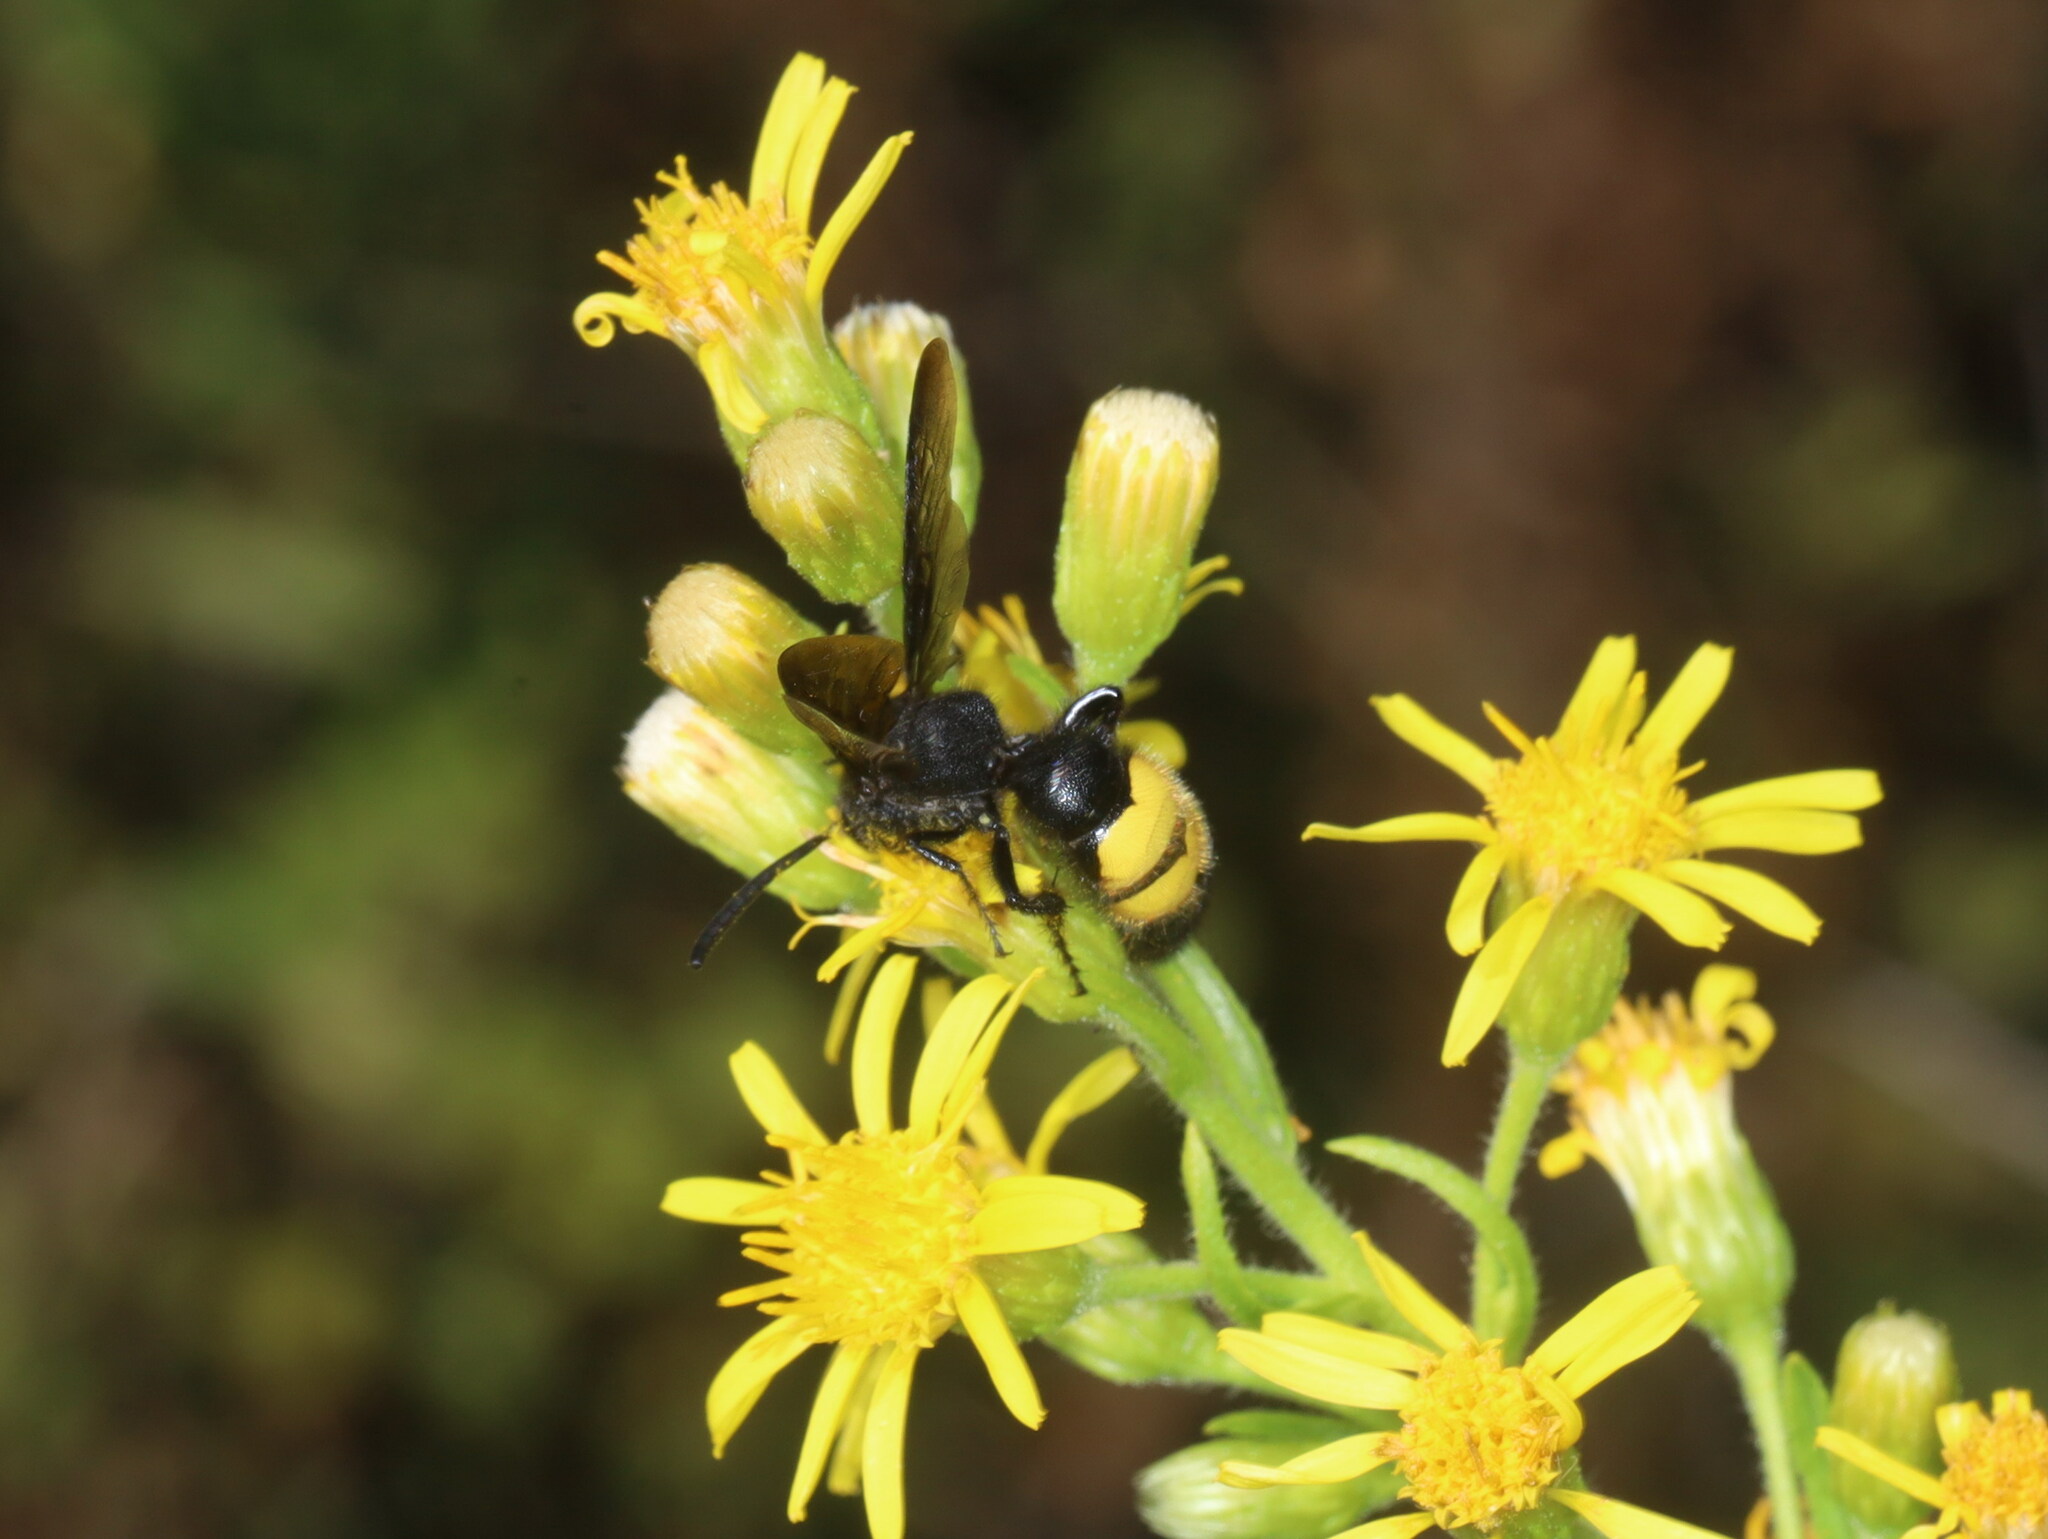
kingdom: Animalia
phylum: Arthropoda
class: Insecta
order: Hymenoptera
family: Scoliidae
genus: Scolia
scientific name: Scolia hirta
